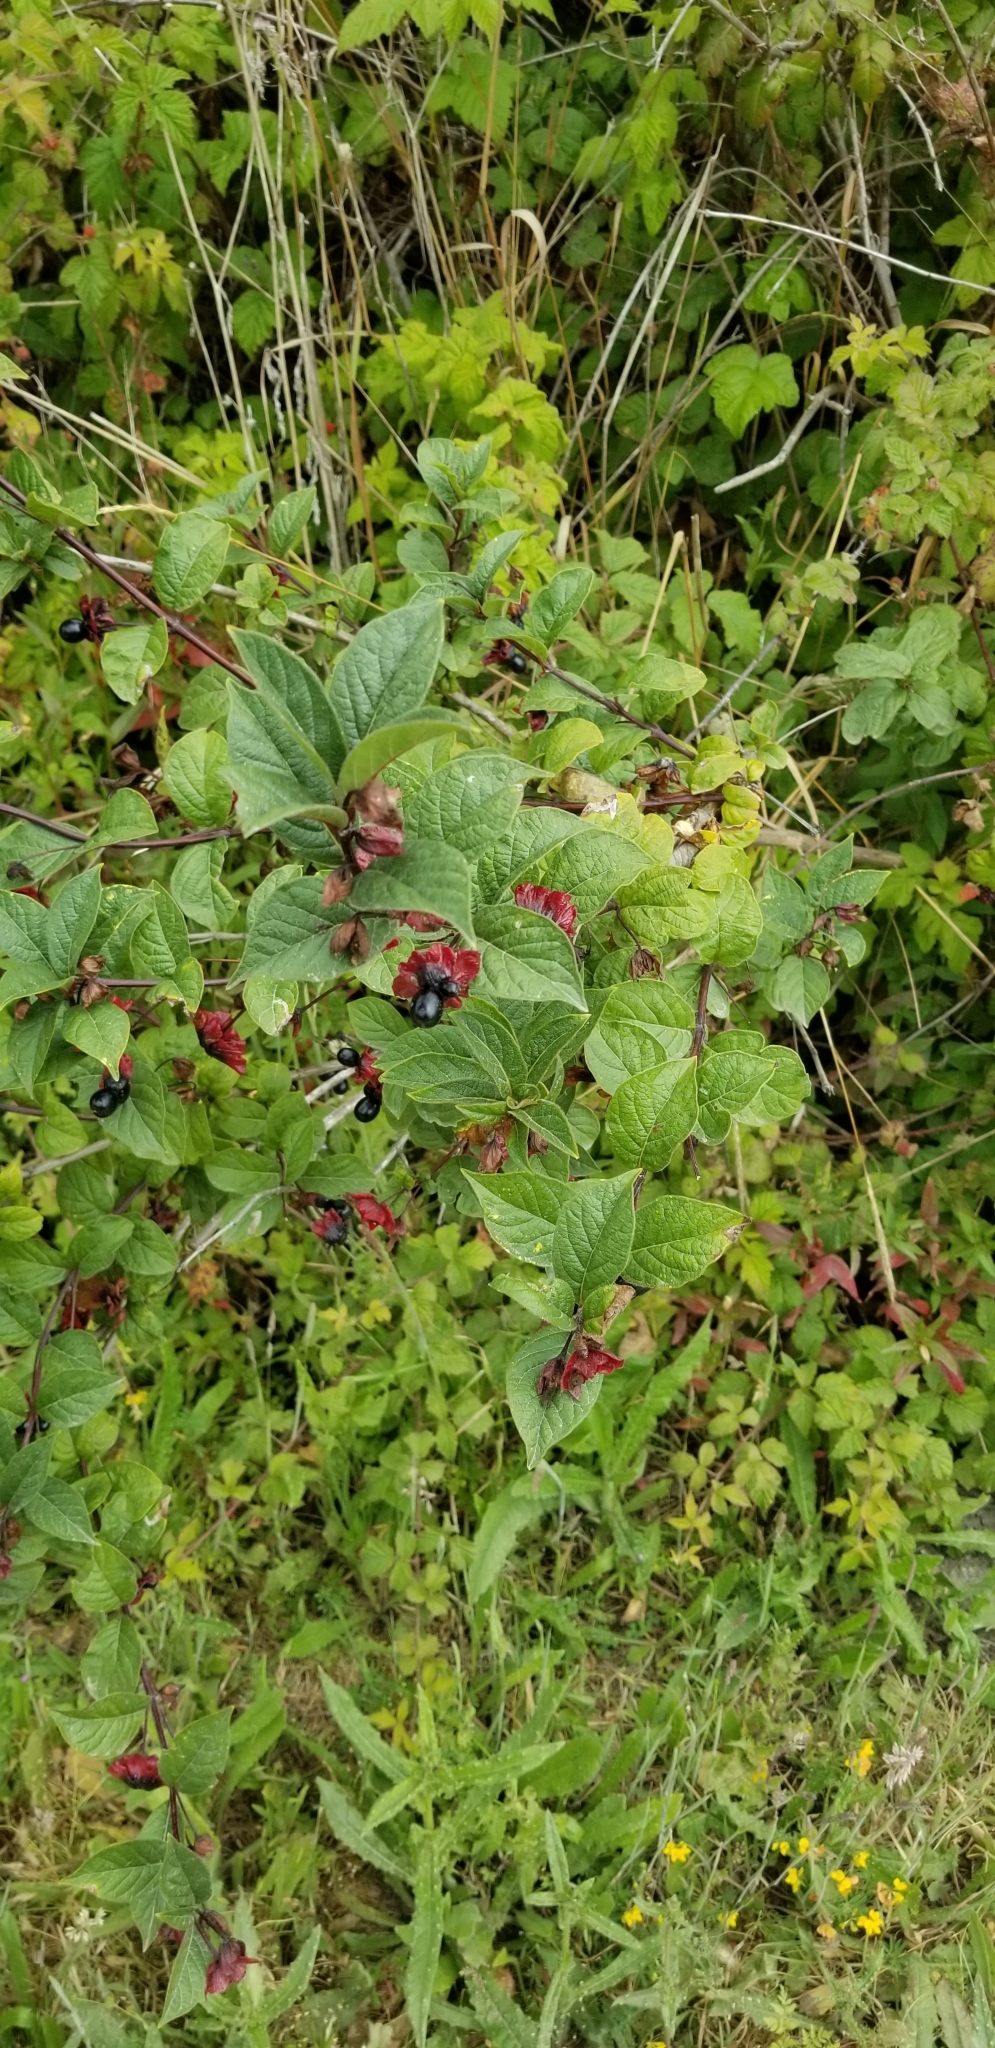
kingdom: Plantae
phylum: Tracheophyta
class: Magnoliopsida
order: Dipsacales
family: Caprifoliaceae
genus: Lonicera
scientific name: Lonicera involucrata
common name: Californian honeysuckle
